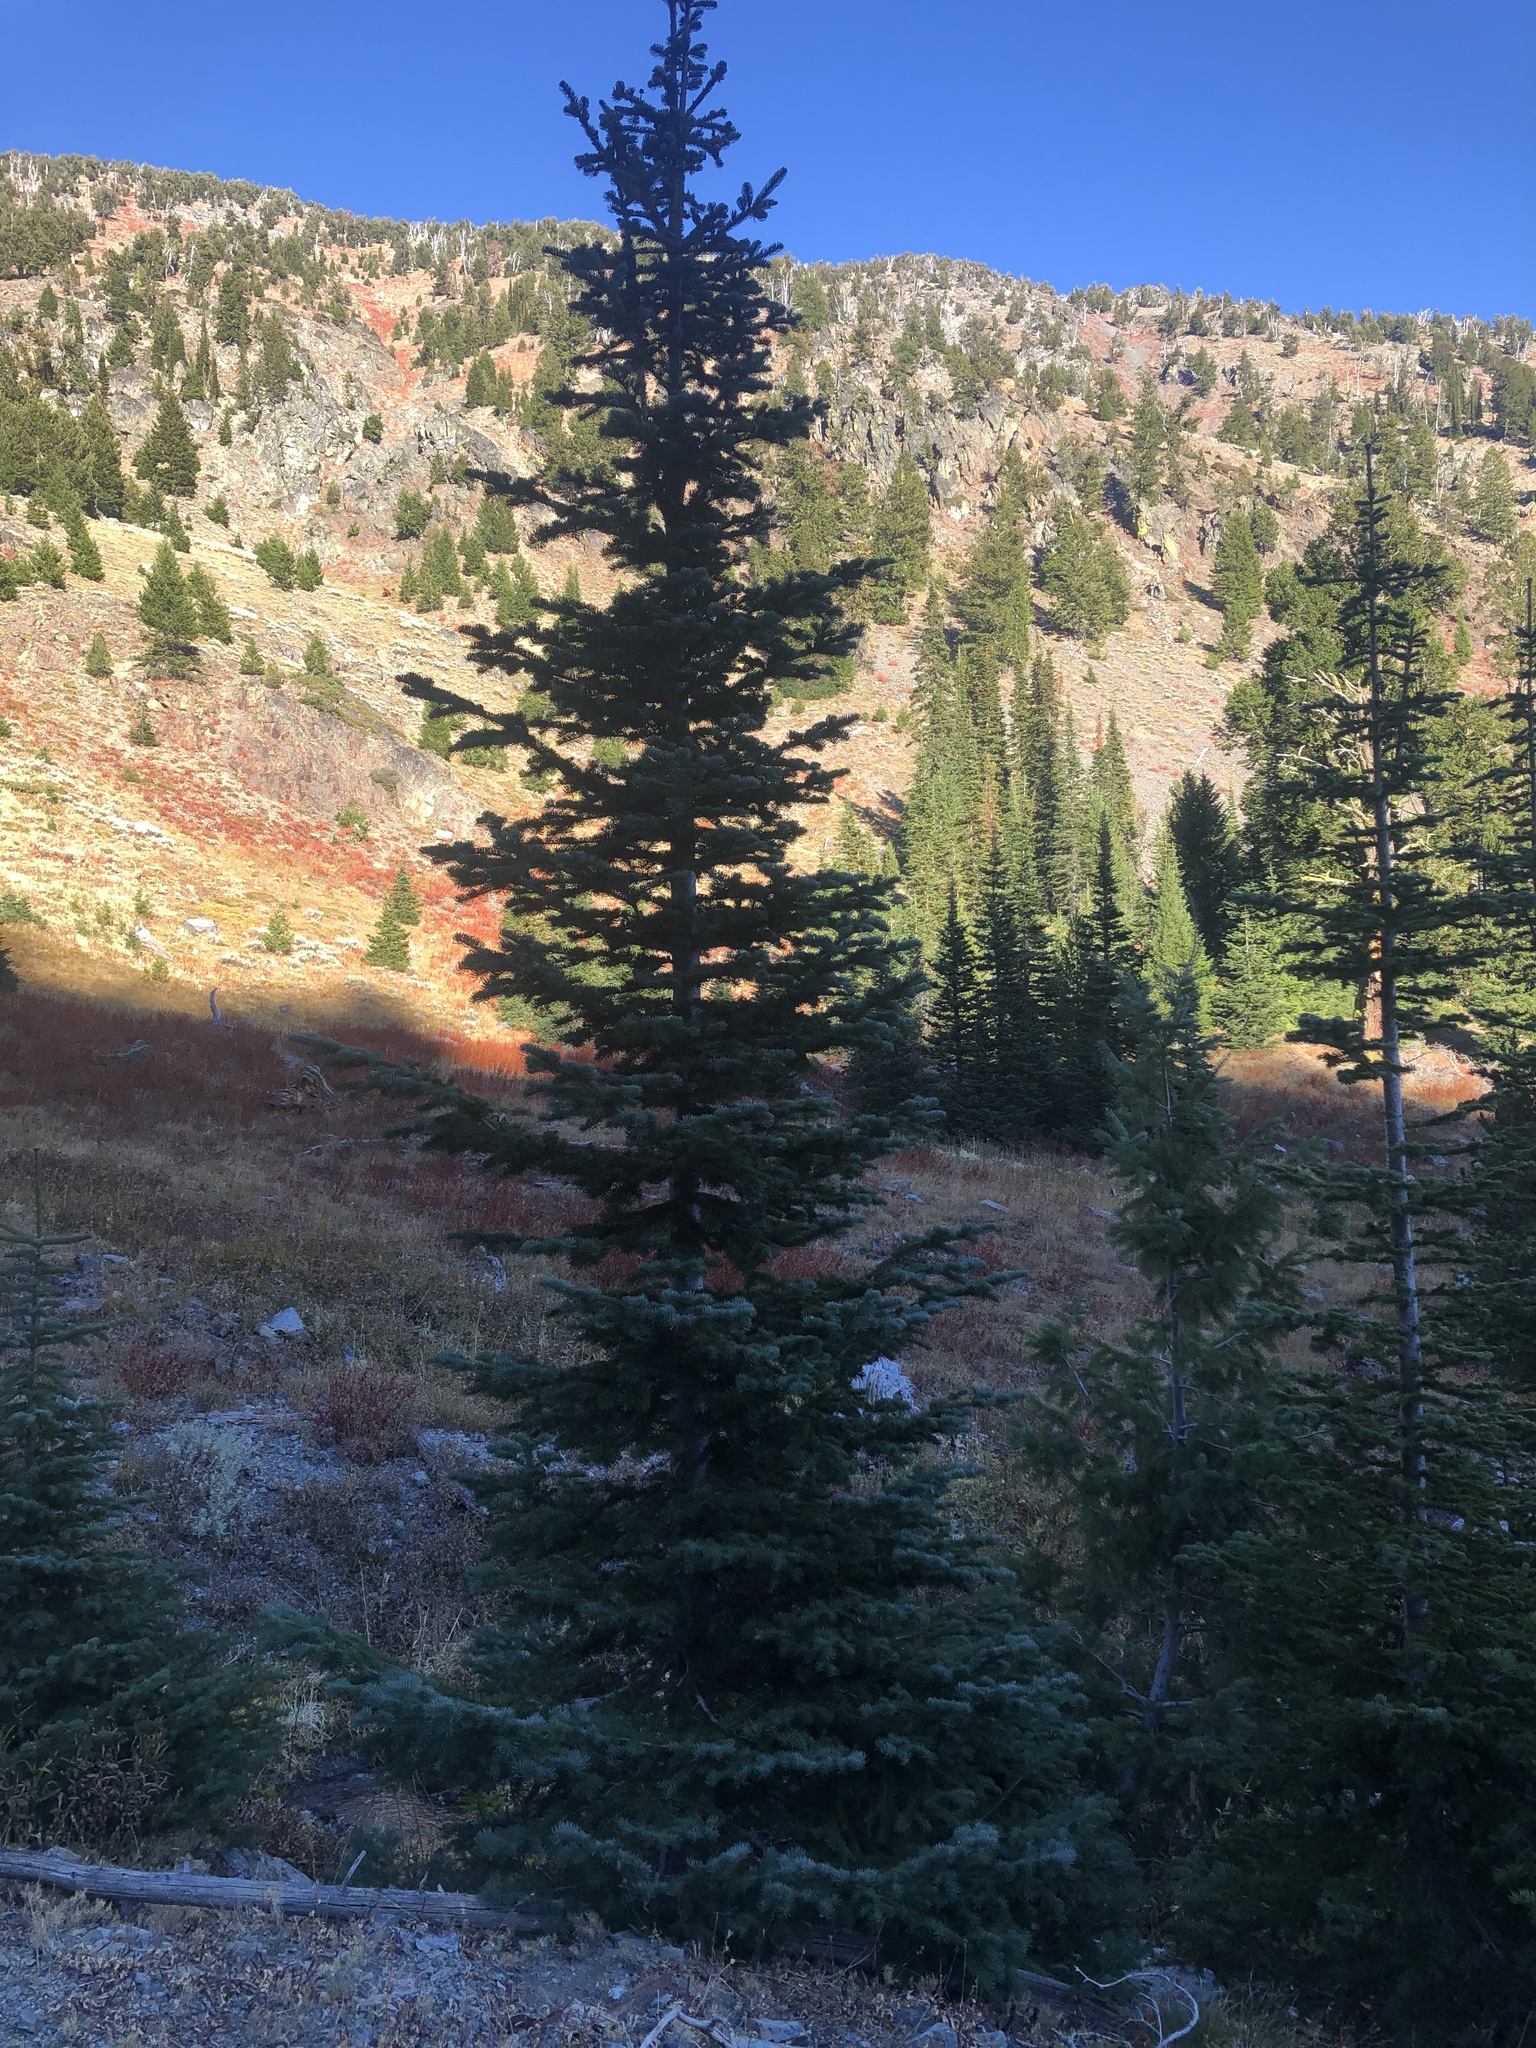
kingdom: Plantae
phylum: Tracheophyta
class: Pinopsida
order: Pinales
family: Pinaceae
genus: Abies
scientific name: Abies lasiocarpa
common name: Subalpine fir
